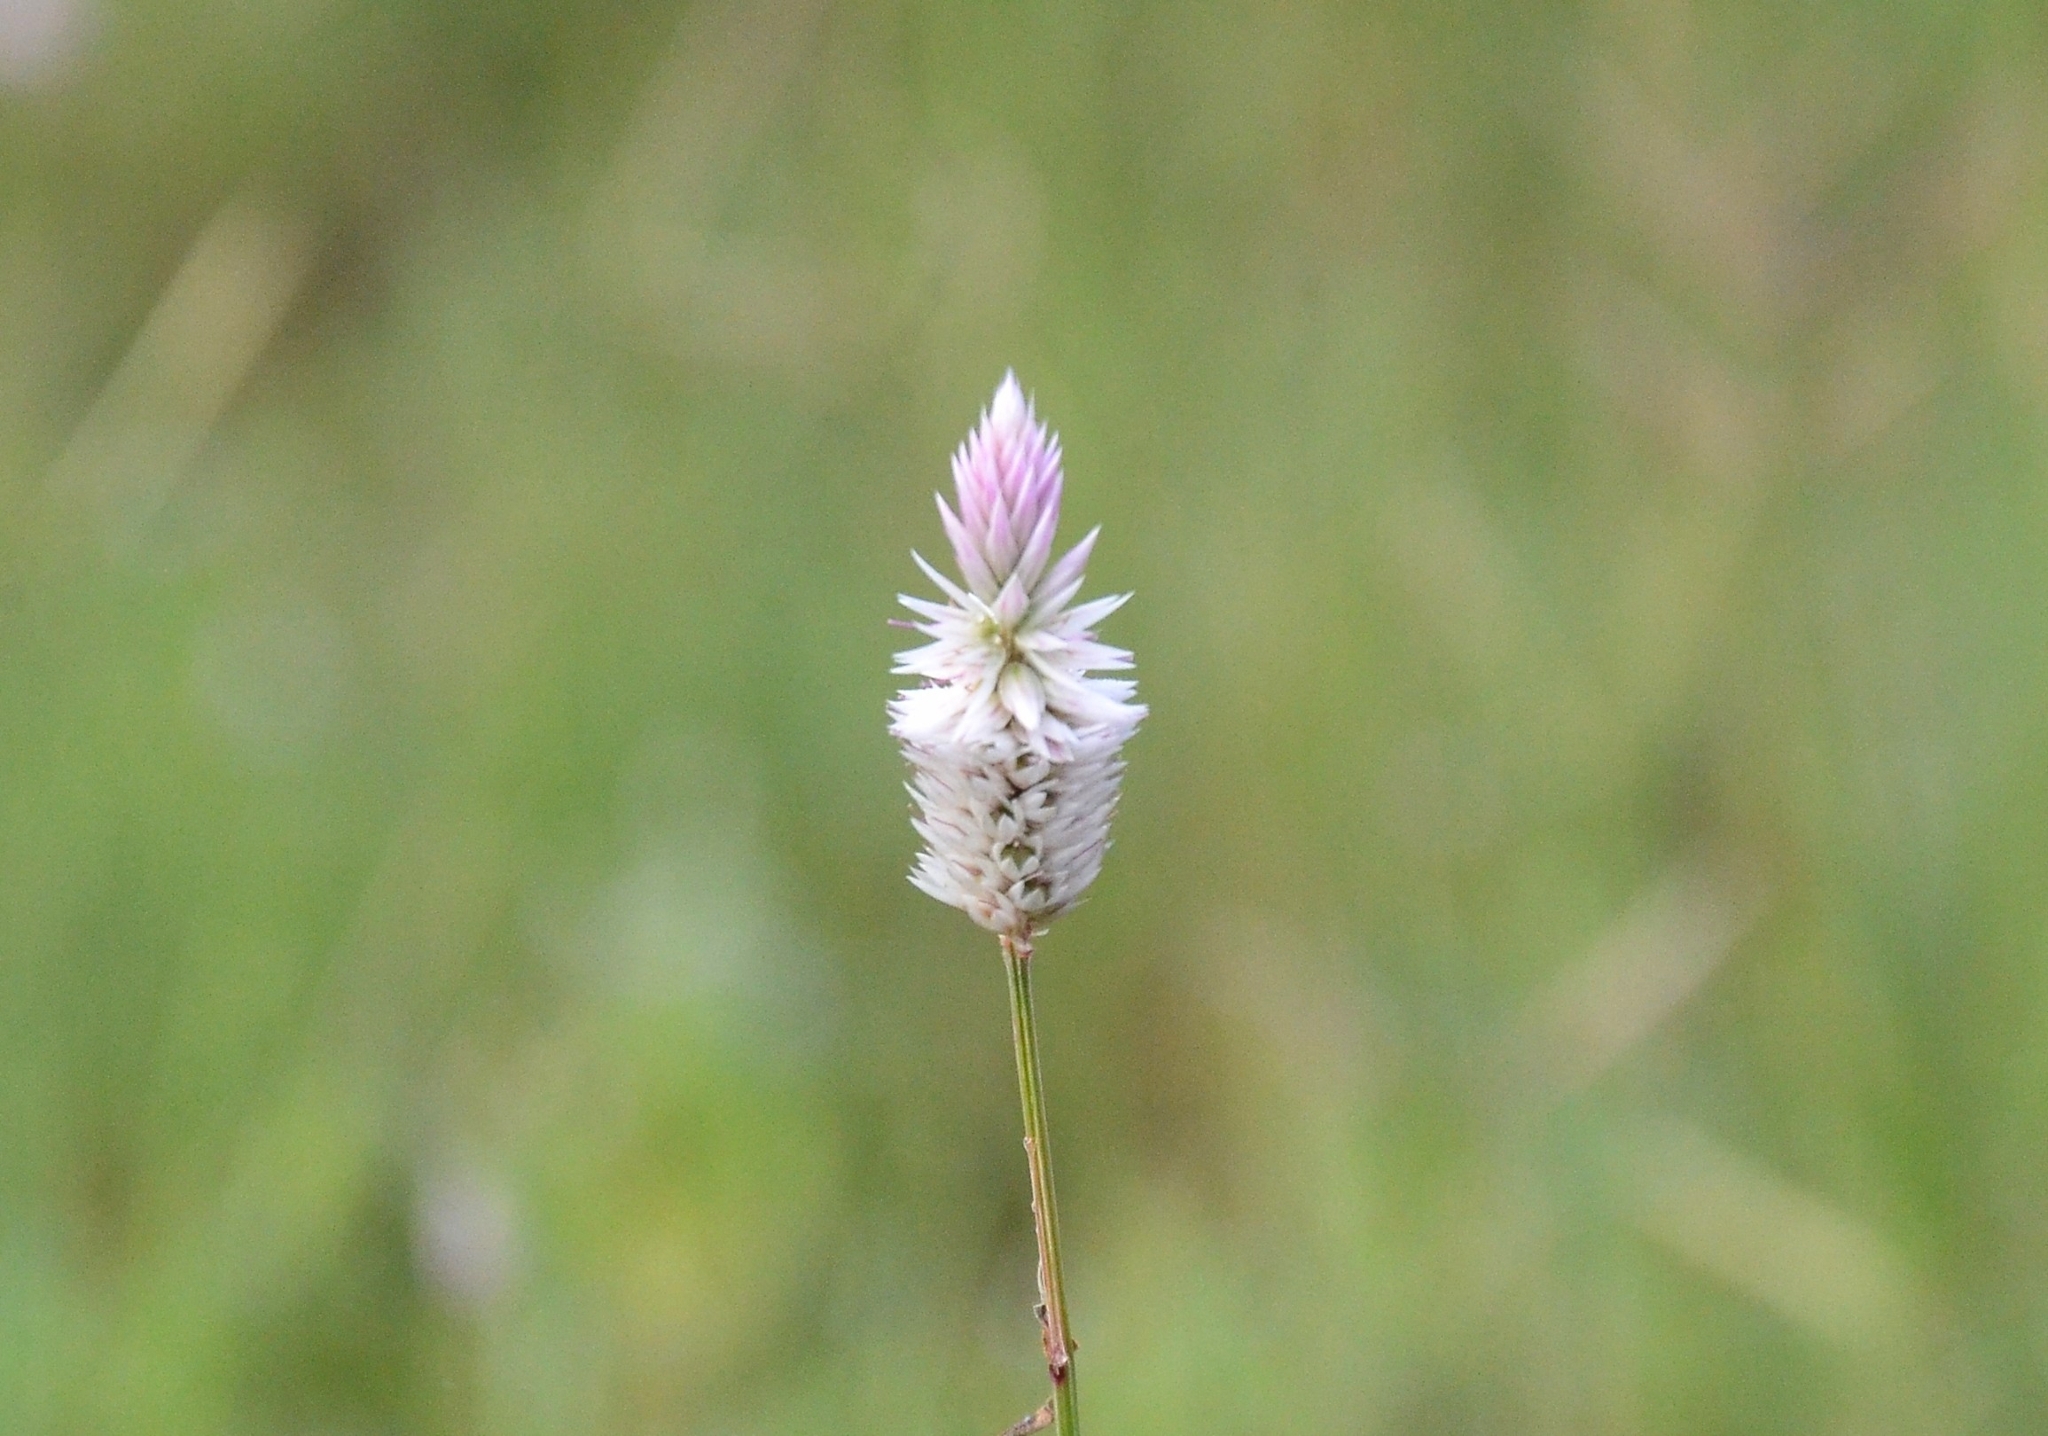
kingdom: Plantae
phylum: Tracheophyta
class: Magnoliopsida
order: Caryophyllales
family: Amaranthaceae
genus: Celosia
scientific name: Celosia argentea
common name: Feather cockscomb
